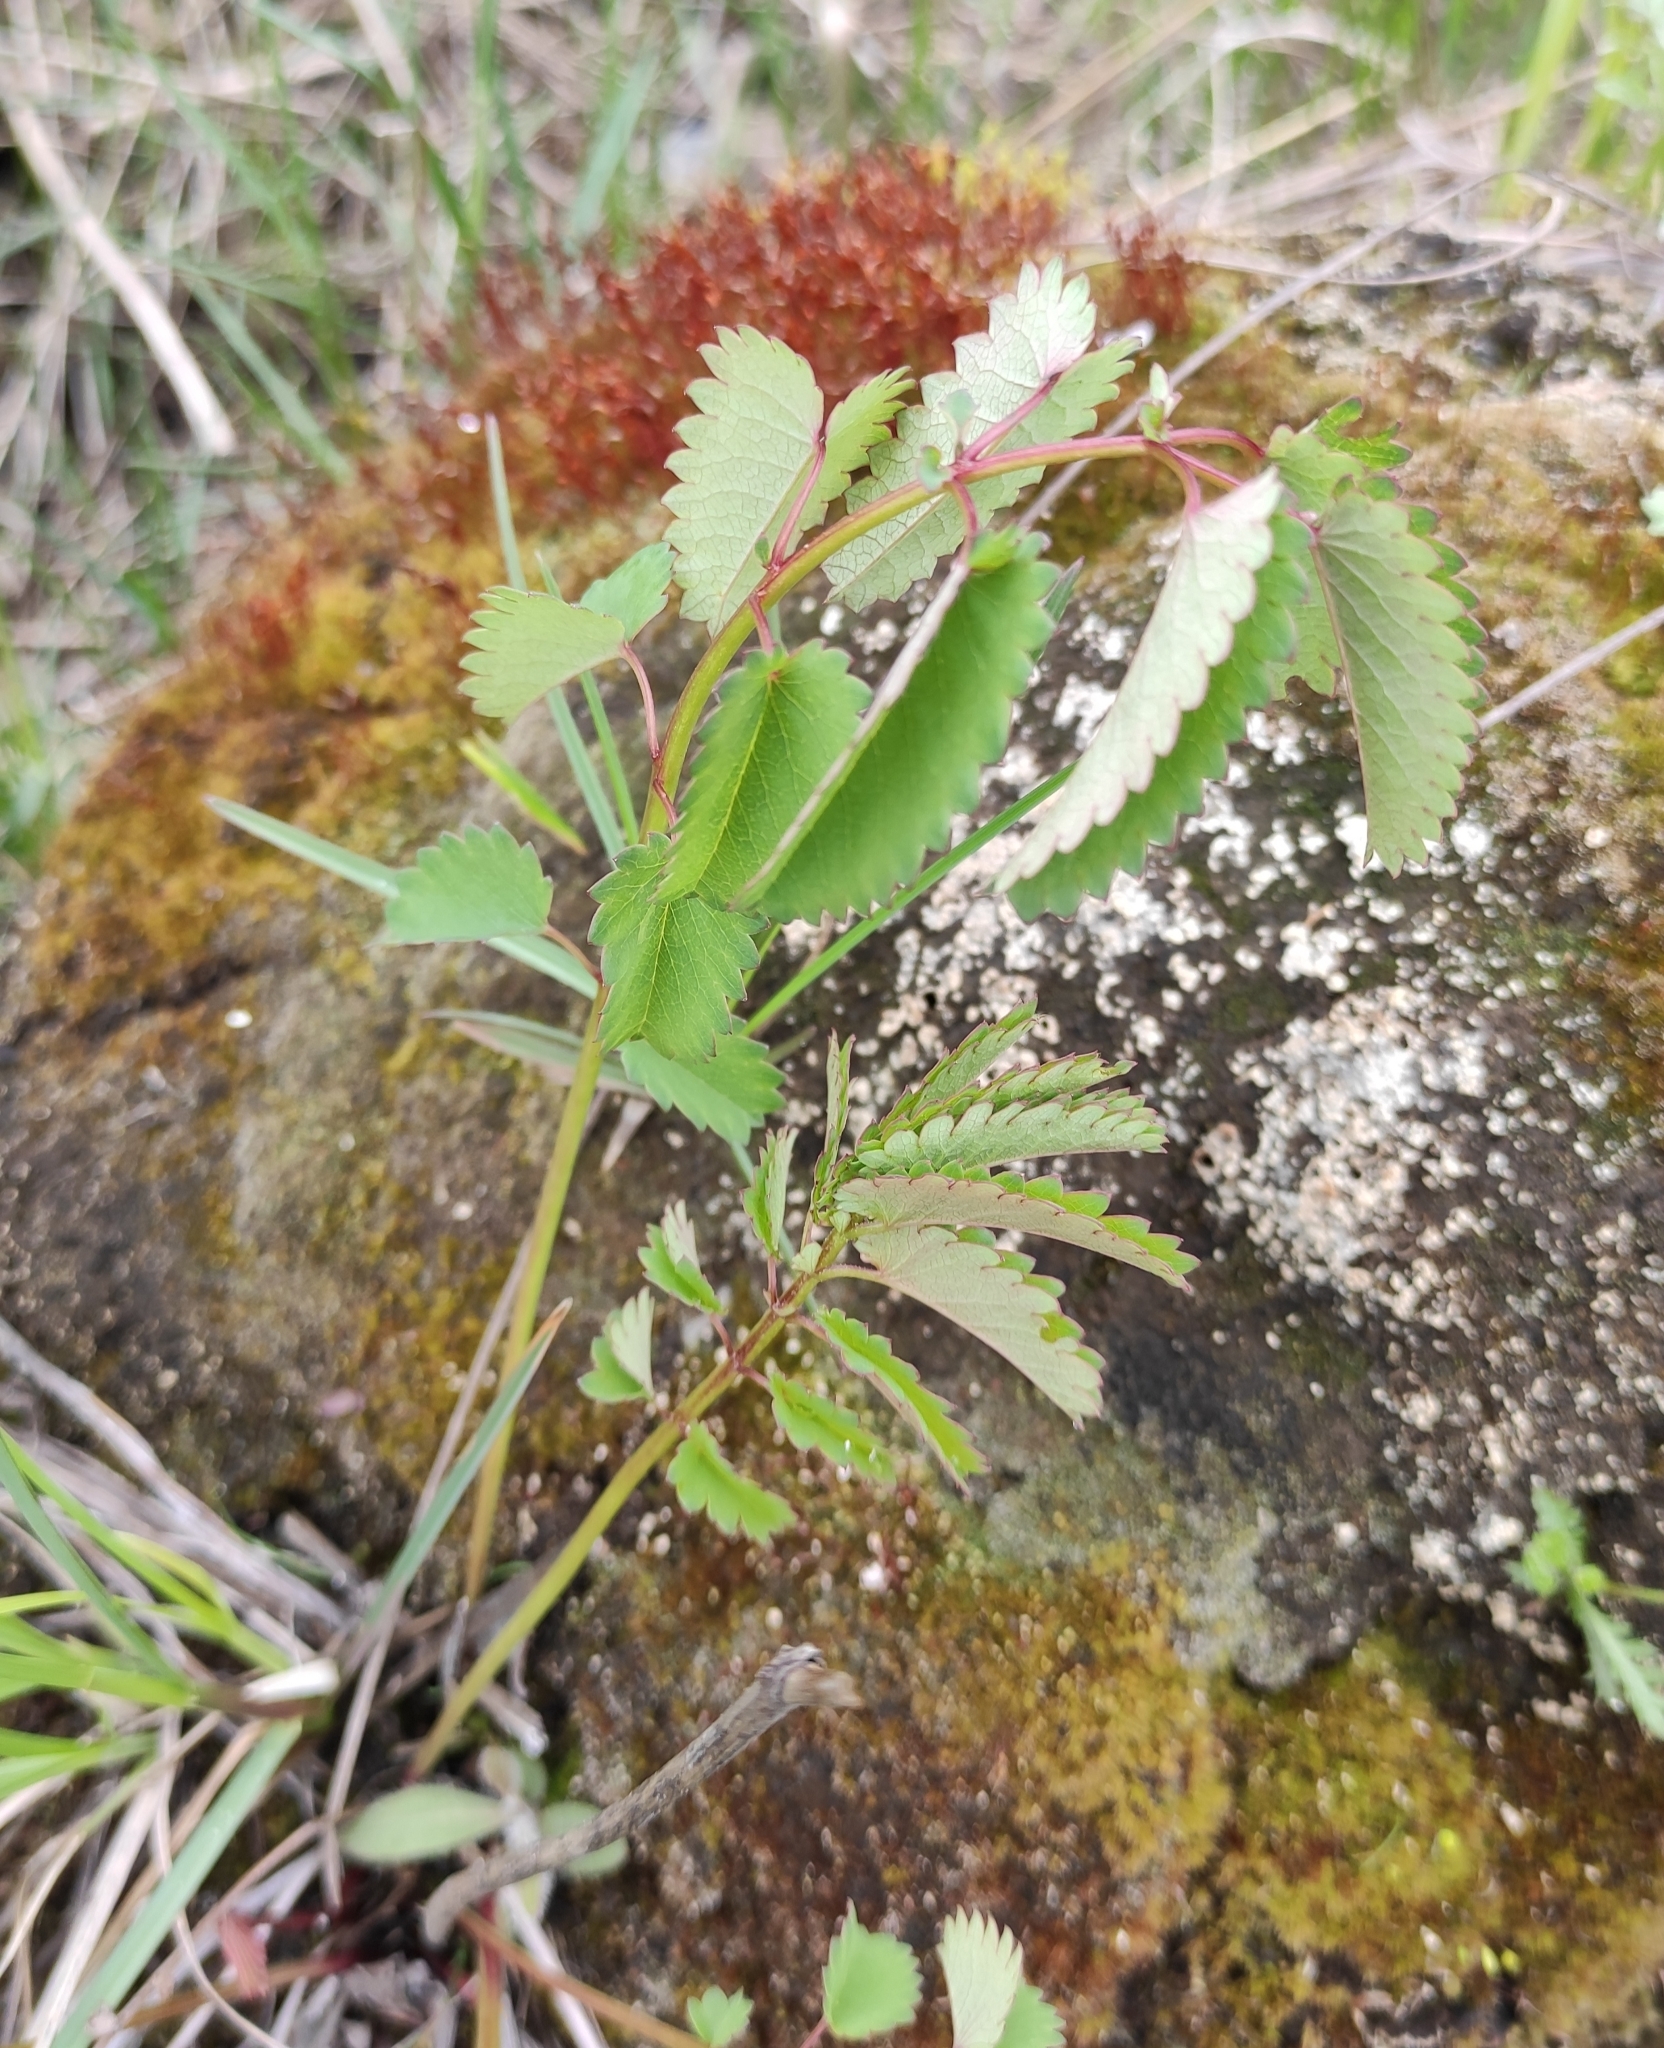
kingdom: Plantae
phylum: Tracheophyta
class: Magnoliopsida
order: Rosales
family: Rosaceae
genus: Sanguisorba
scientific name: Sanguisorba officinalis
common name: Great burnet
